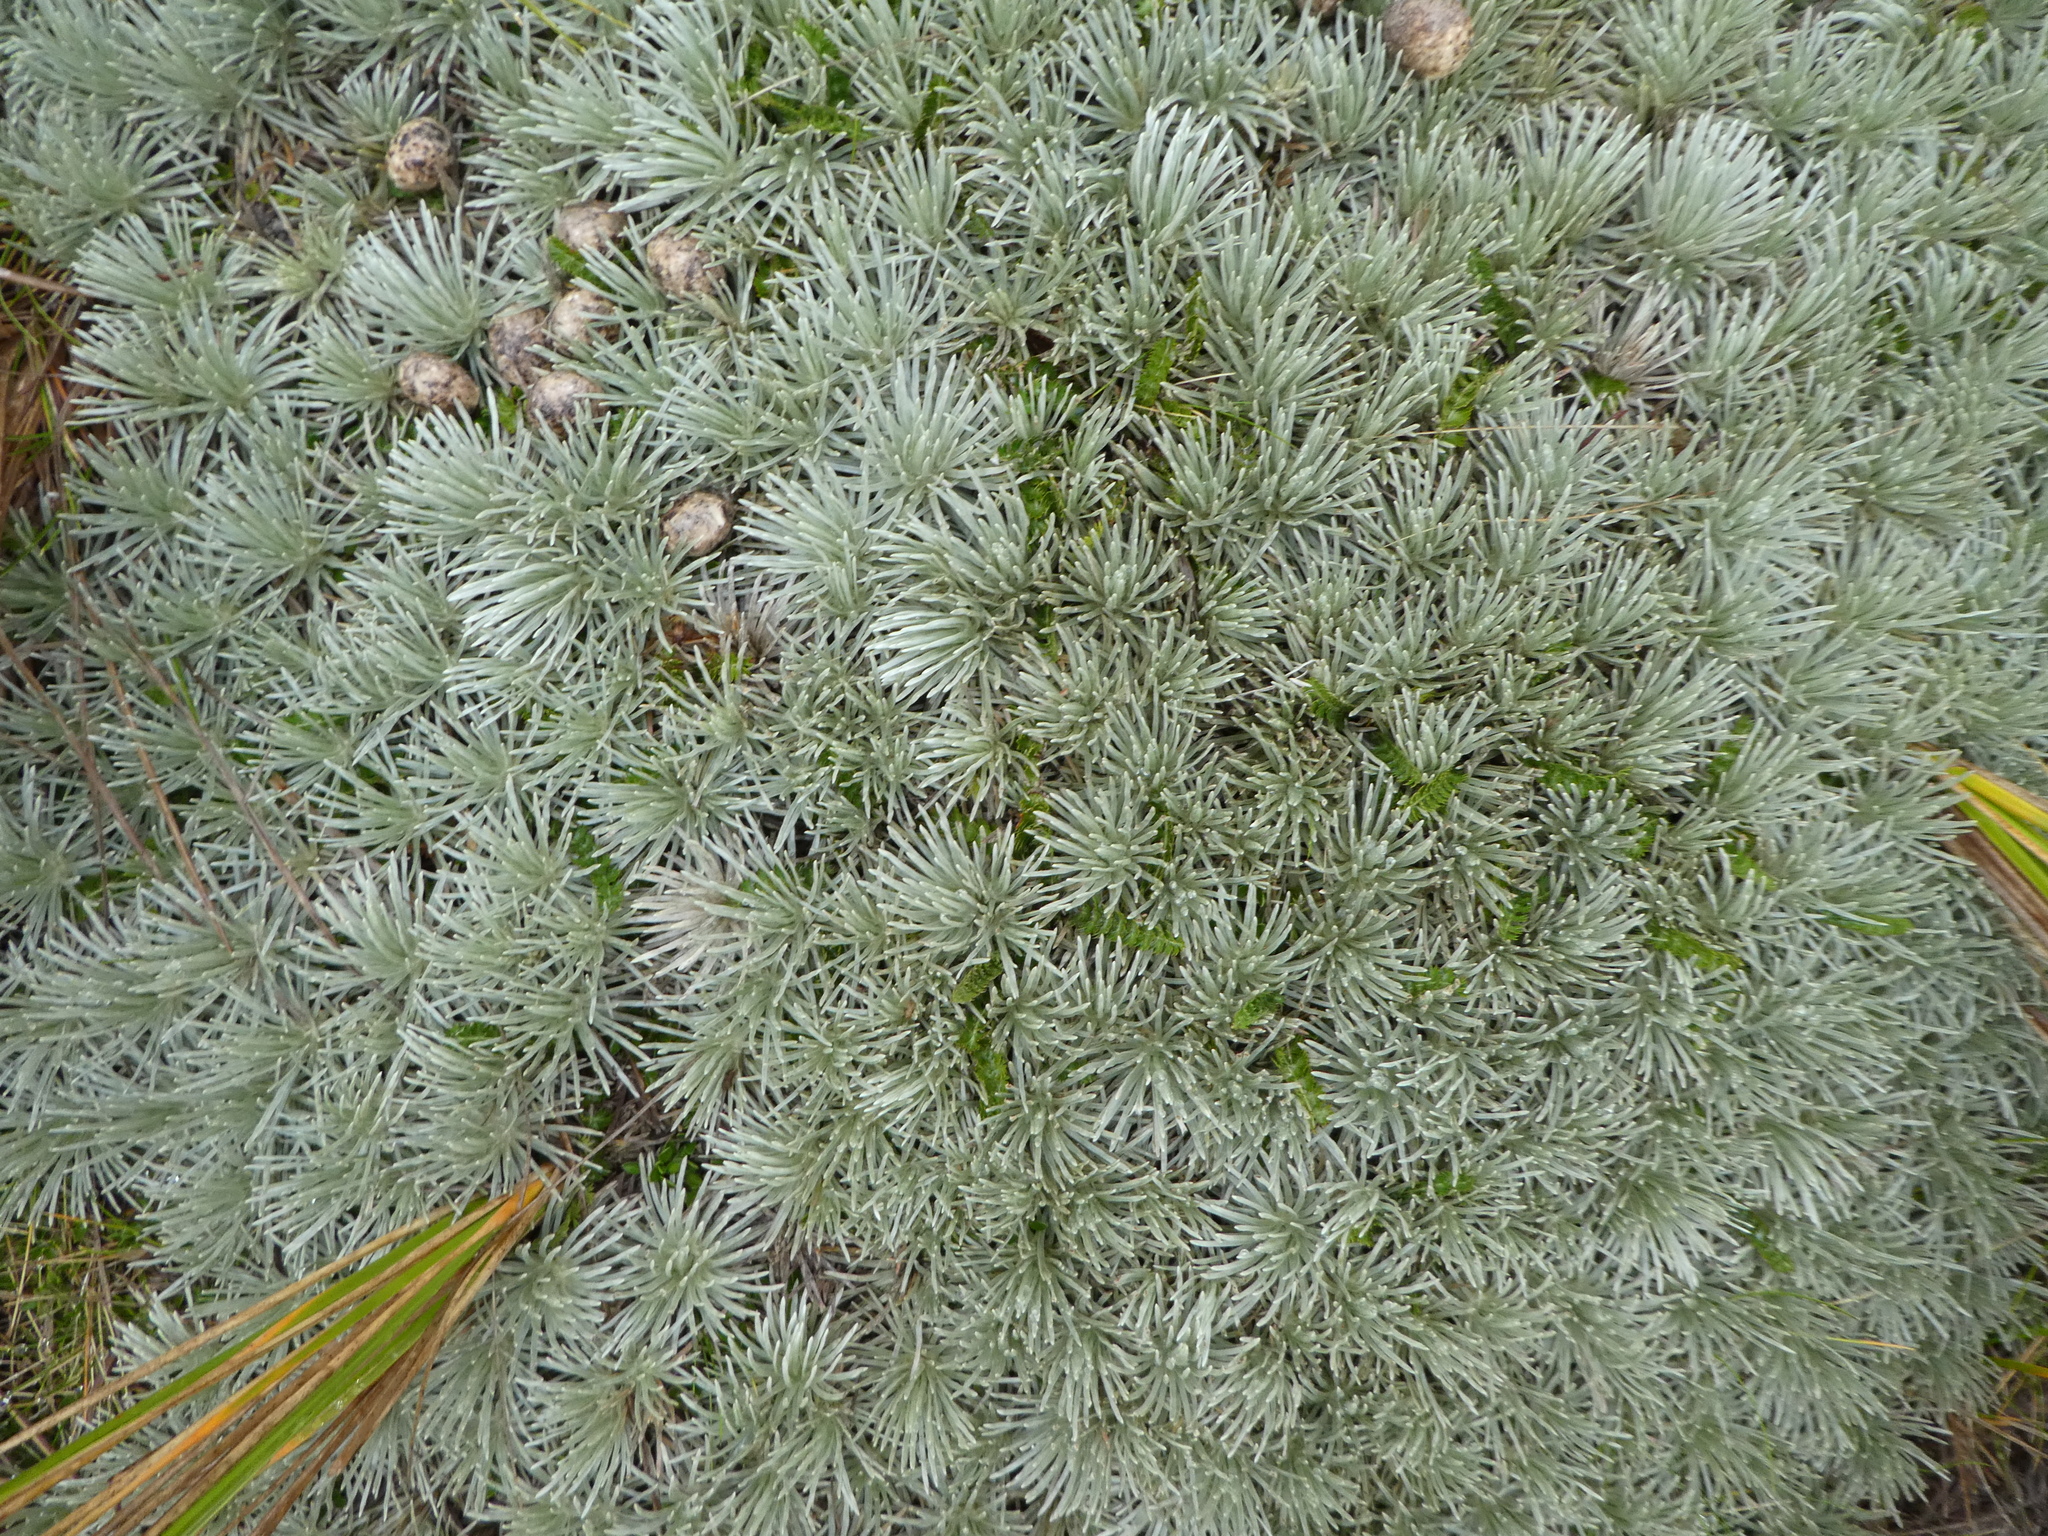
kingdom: Plantae
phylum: Tracheophyta
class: Magnoliopsida
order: Asterales
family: Asteraceae
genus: Celmisia
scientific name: Celmisia sessiliflora
